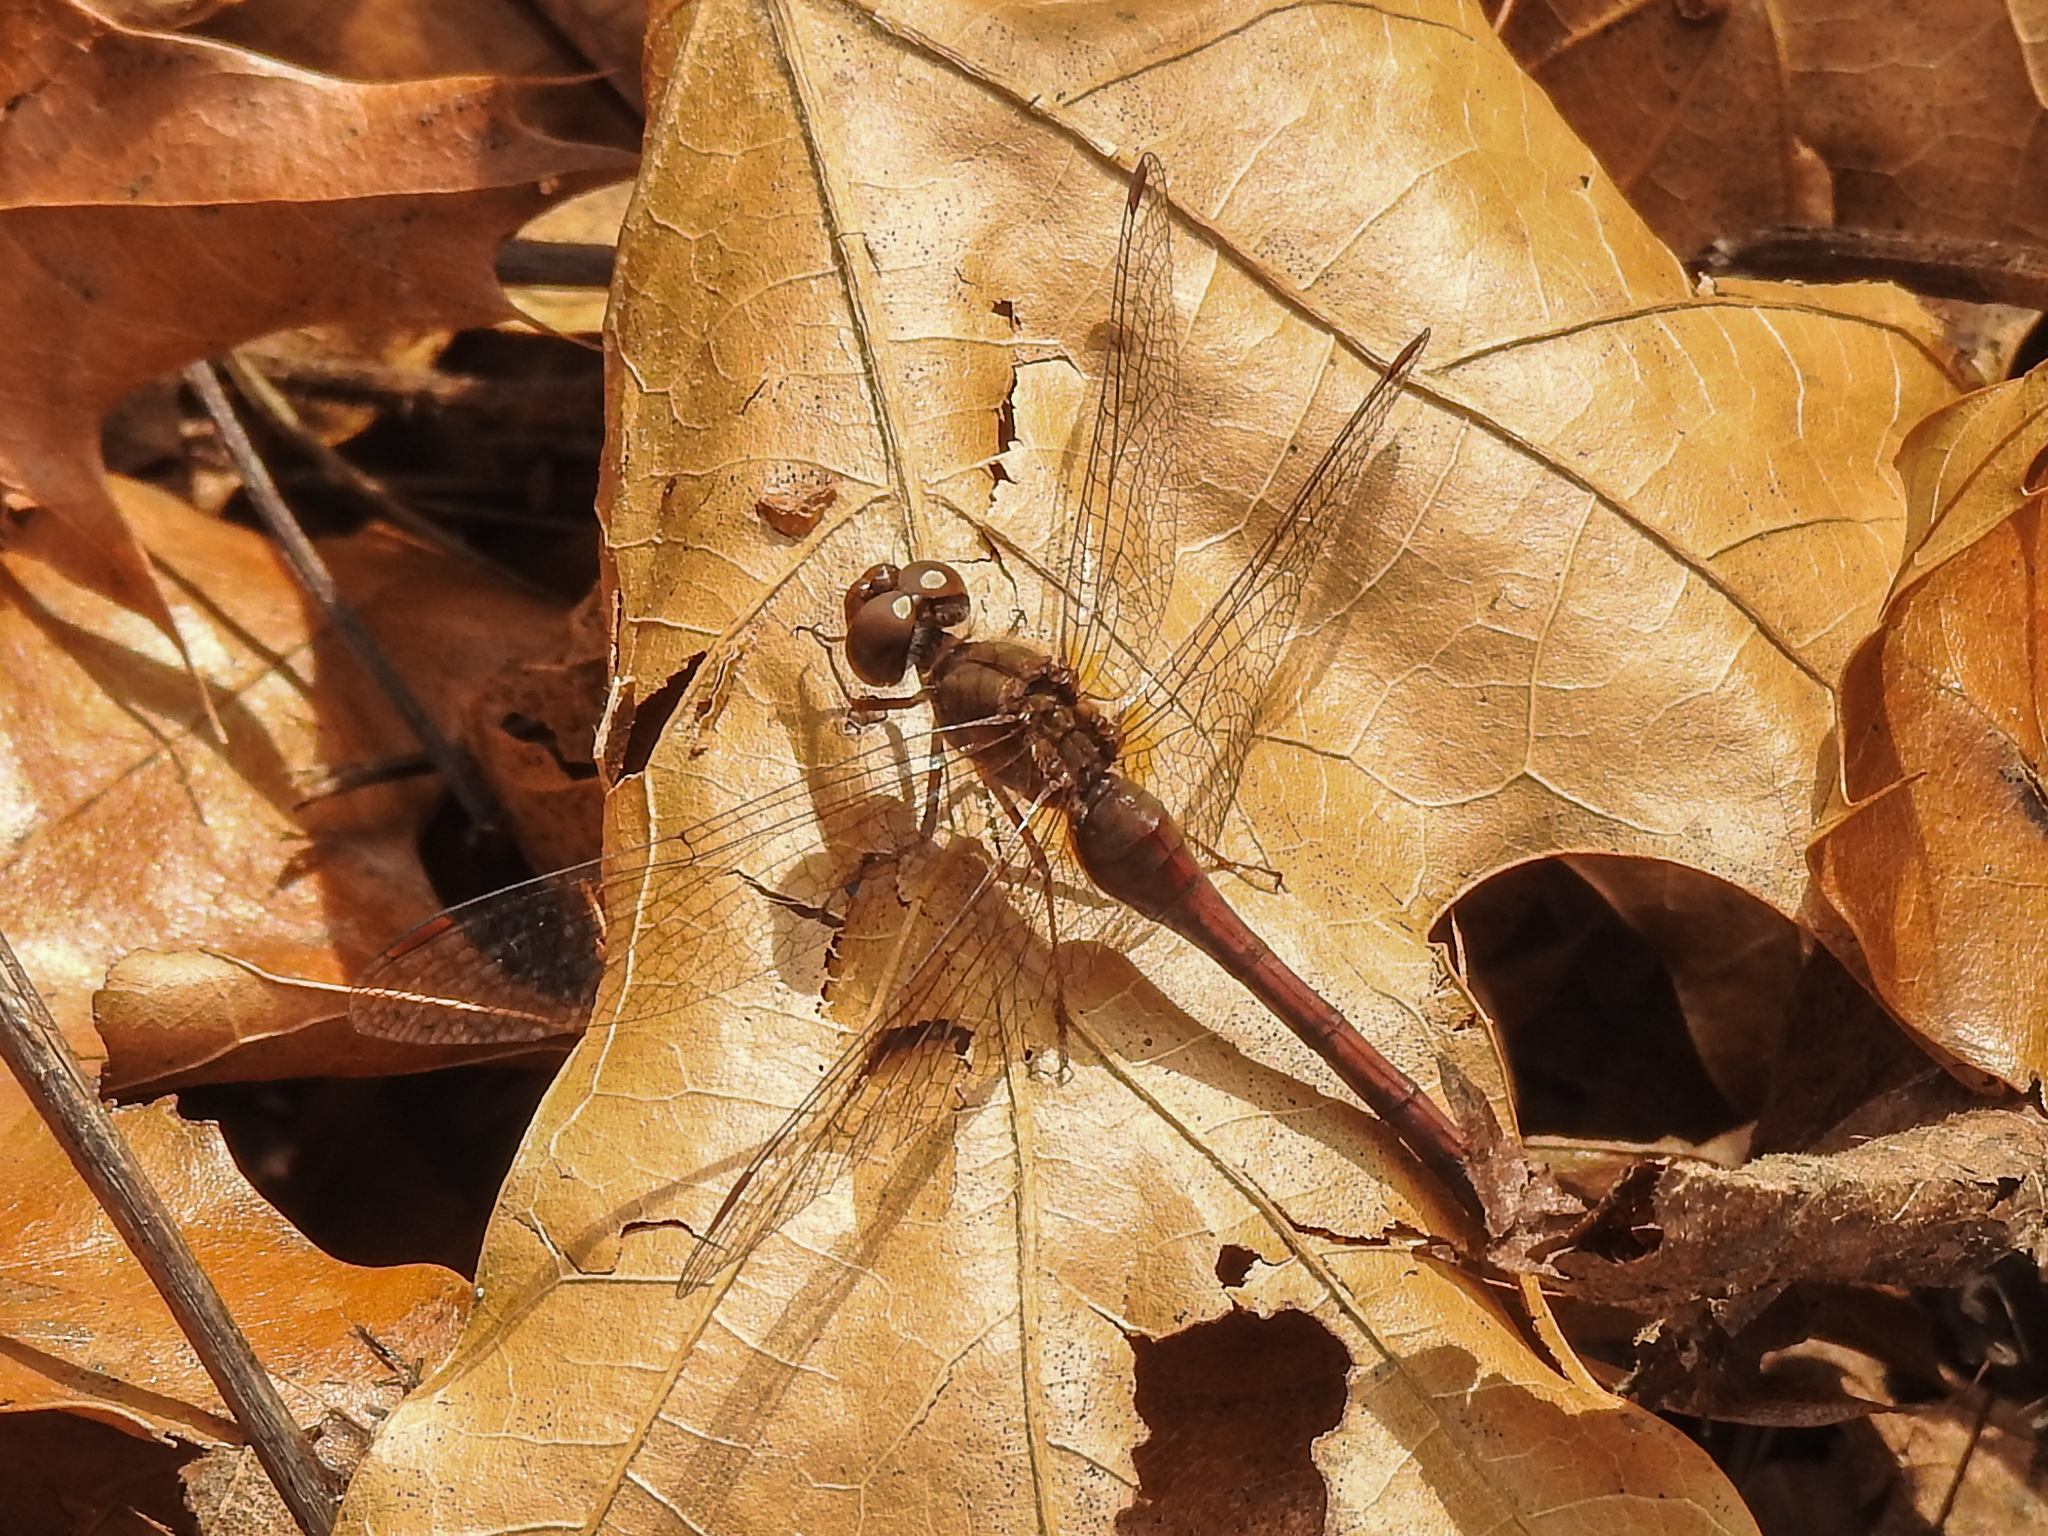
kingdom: Animalia
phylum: Arthropoda
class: Insecta
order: Odonata
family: Libellulidae
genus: Sympetrum
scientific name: Sympetrum vicinum
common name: Autumn meadowhawk
